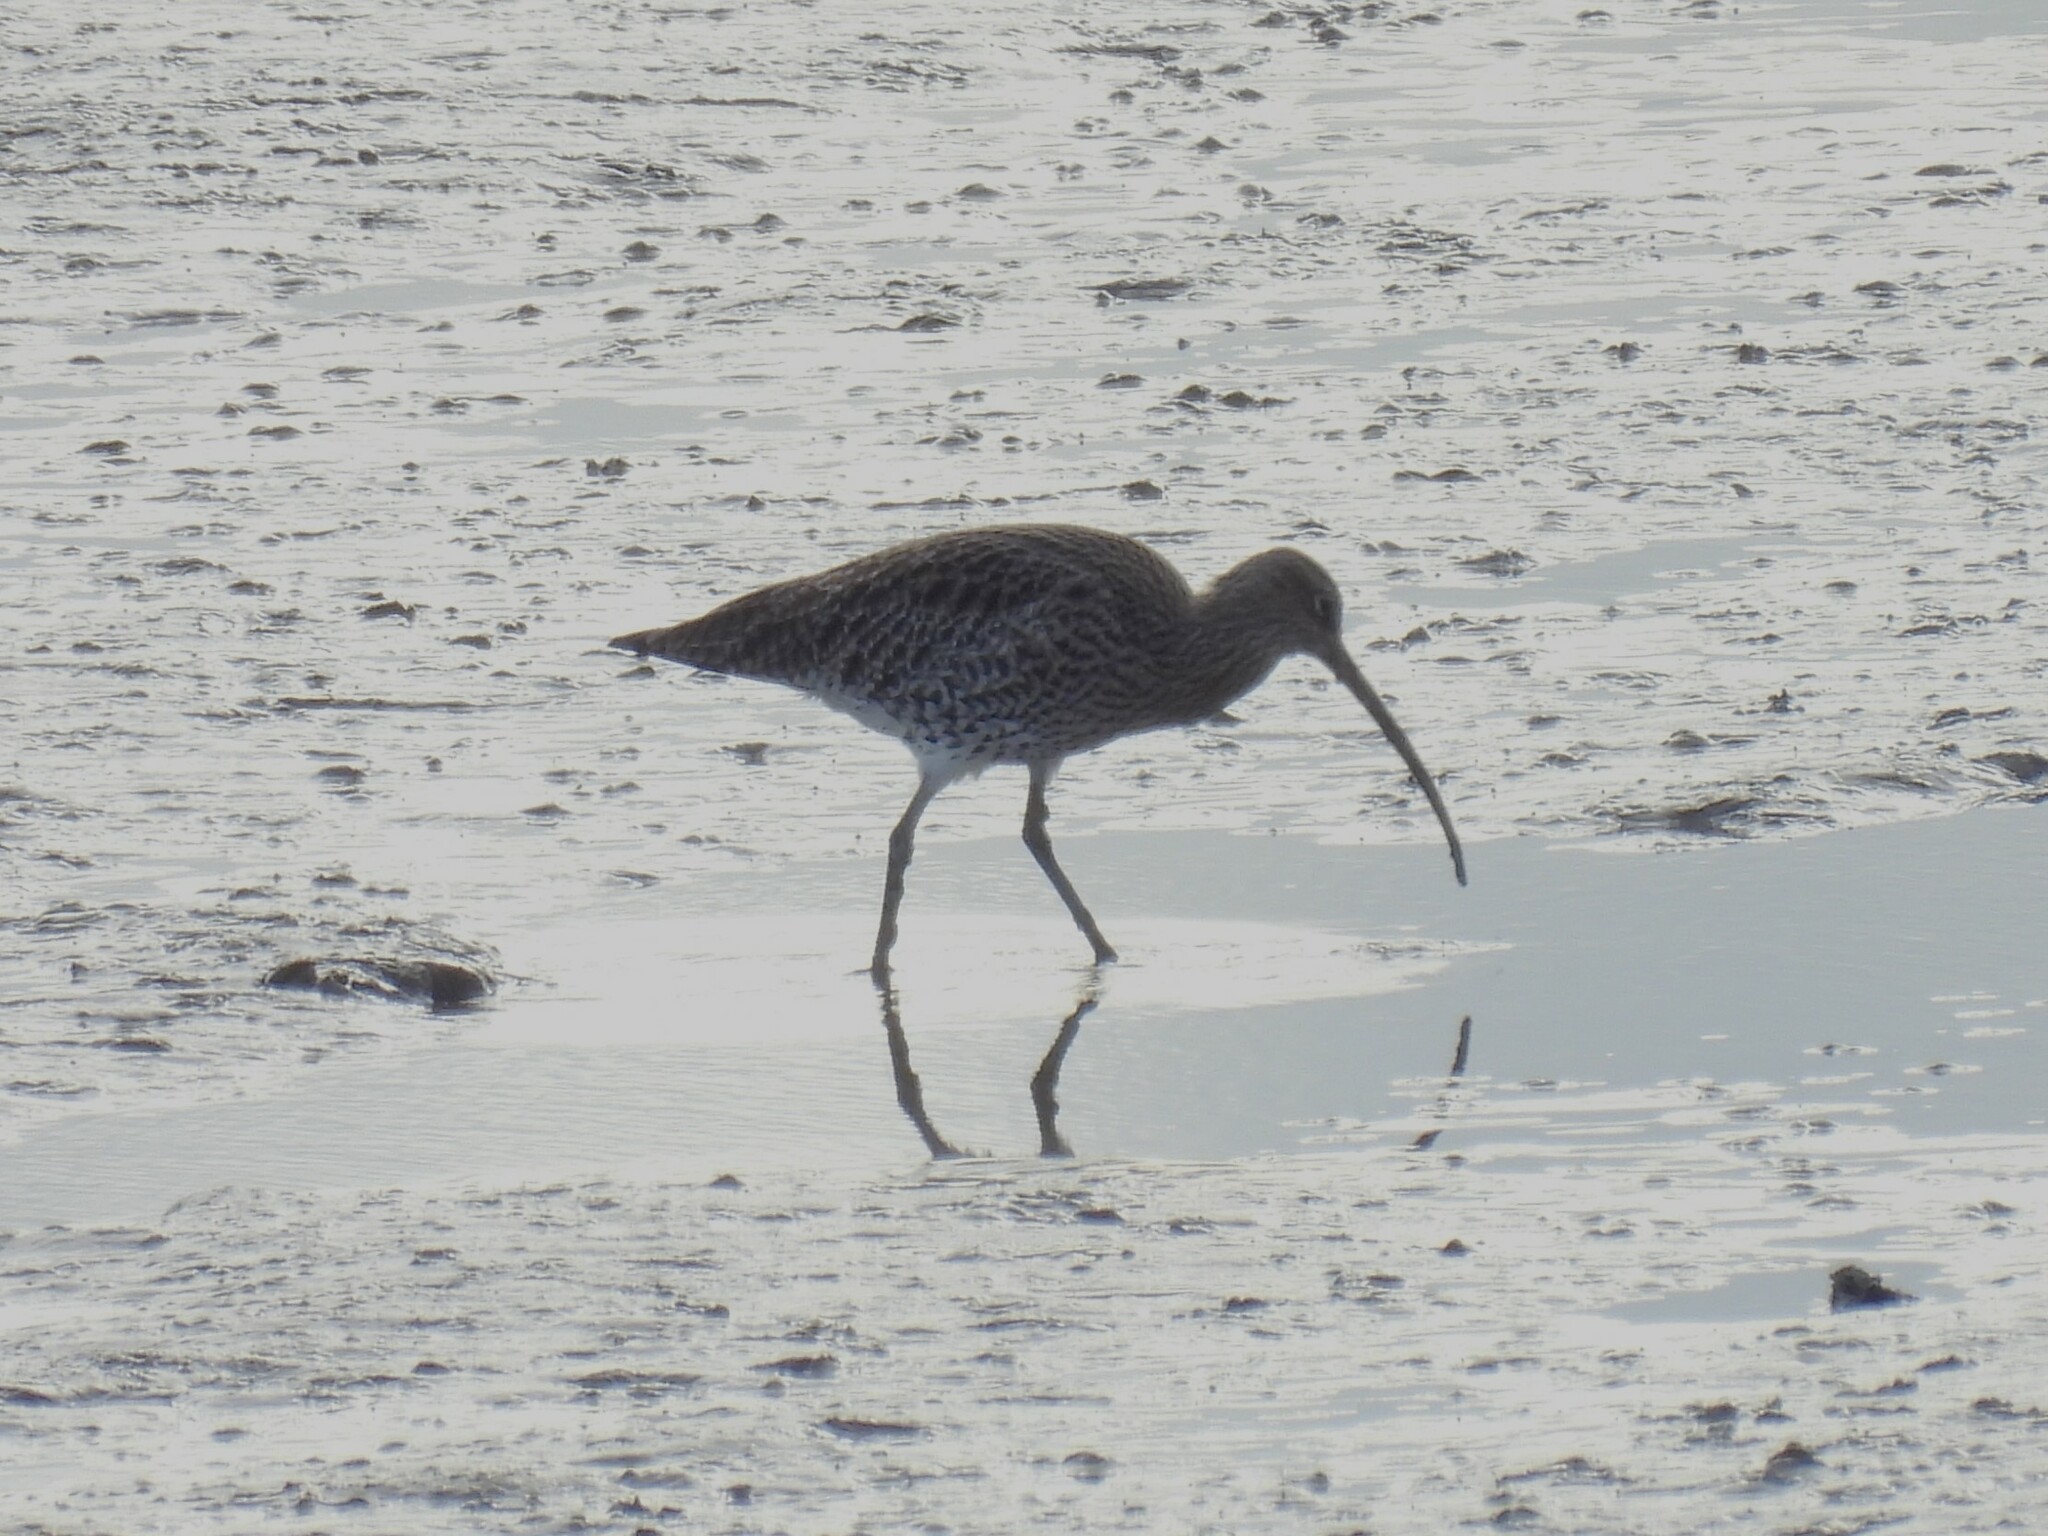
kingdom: Animalia
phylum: Chordata
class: Aves
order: Charadriiformes
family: Scolopacidae
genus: Numenius
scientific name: Numenius arquata
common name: Eurasian curlew
